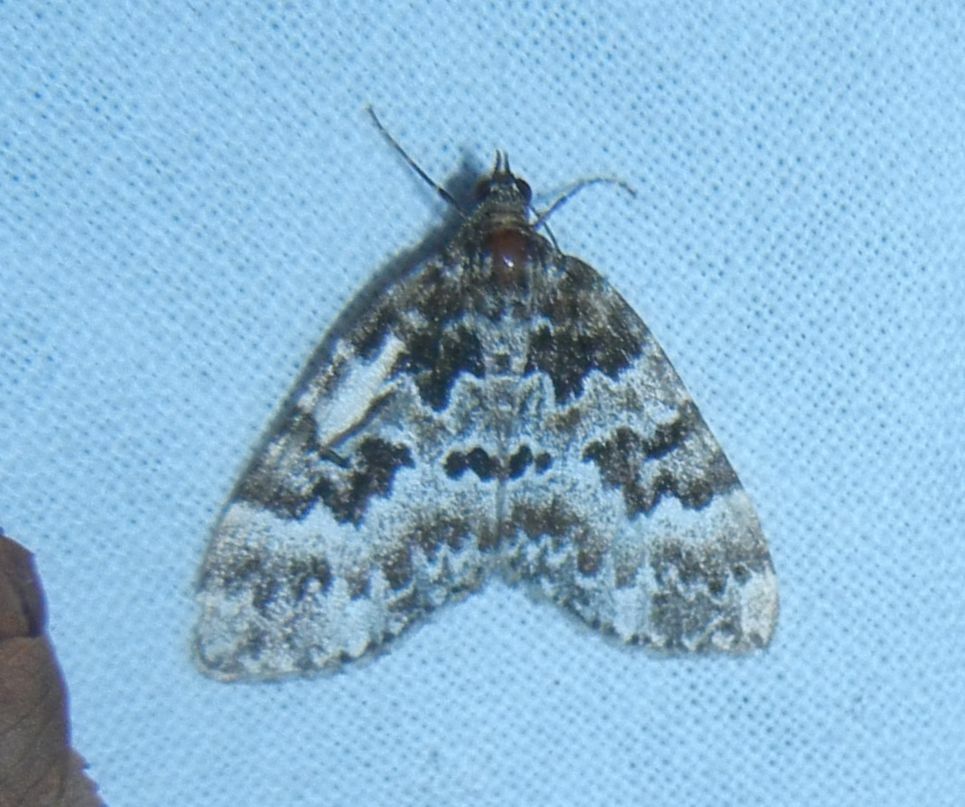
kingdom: Animalia
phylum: Arthropoda
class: Insecta
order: Lepidoptera
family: Geometridae
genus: Electrophaes
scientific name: Electrophaes corylata
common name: Broken-barred carpet
